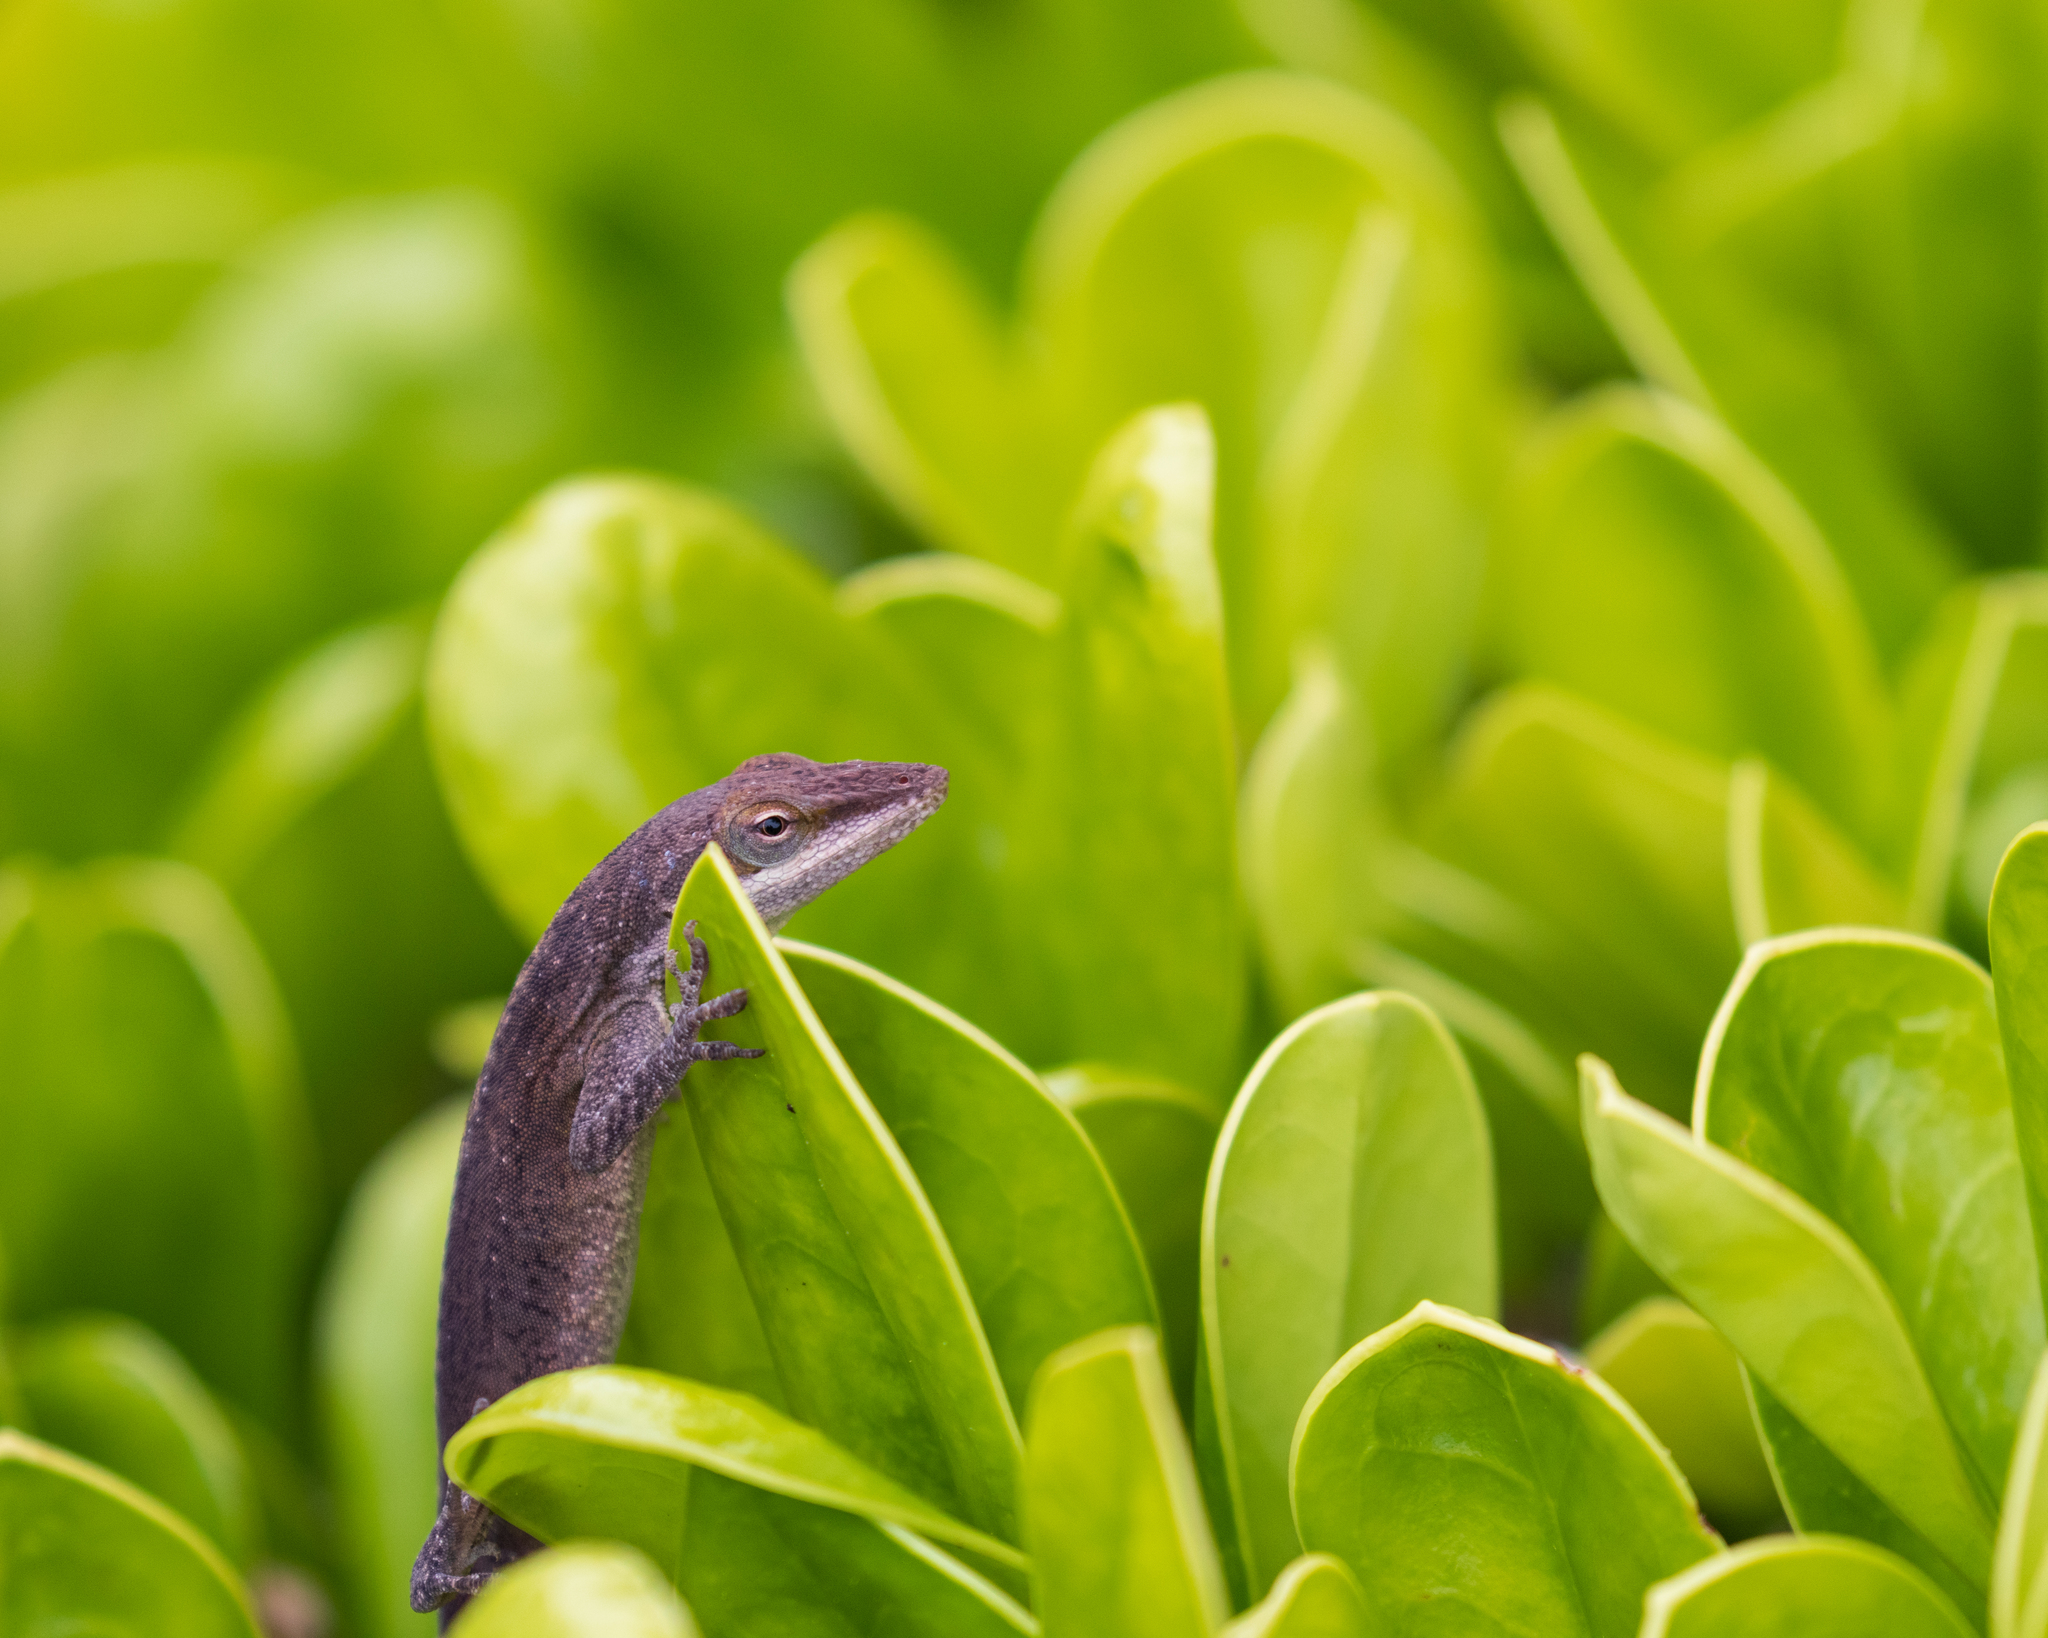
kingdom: Animalia
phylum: Chordata
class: Squamata
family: Dactyloidae
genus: Anolis
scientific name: Anolis carolinensis
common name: Green anole
